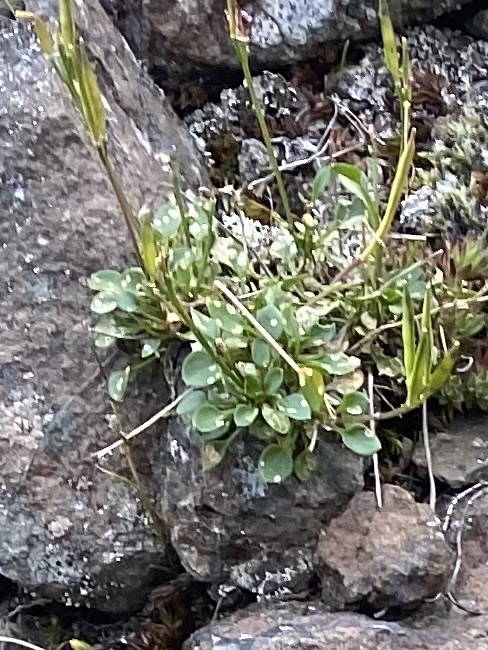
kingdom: Plantae
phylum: Tracheophyta
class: Magnoliopsida
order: Brassicales
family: Brassicaceae
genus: Cardamine
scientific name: Cardamine bellidifolia
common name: Alpine bittercress
